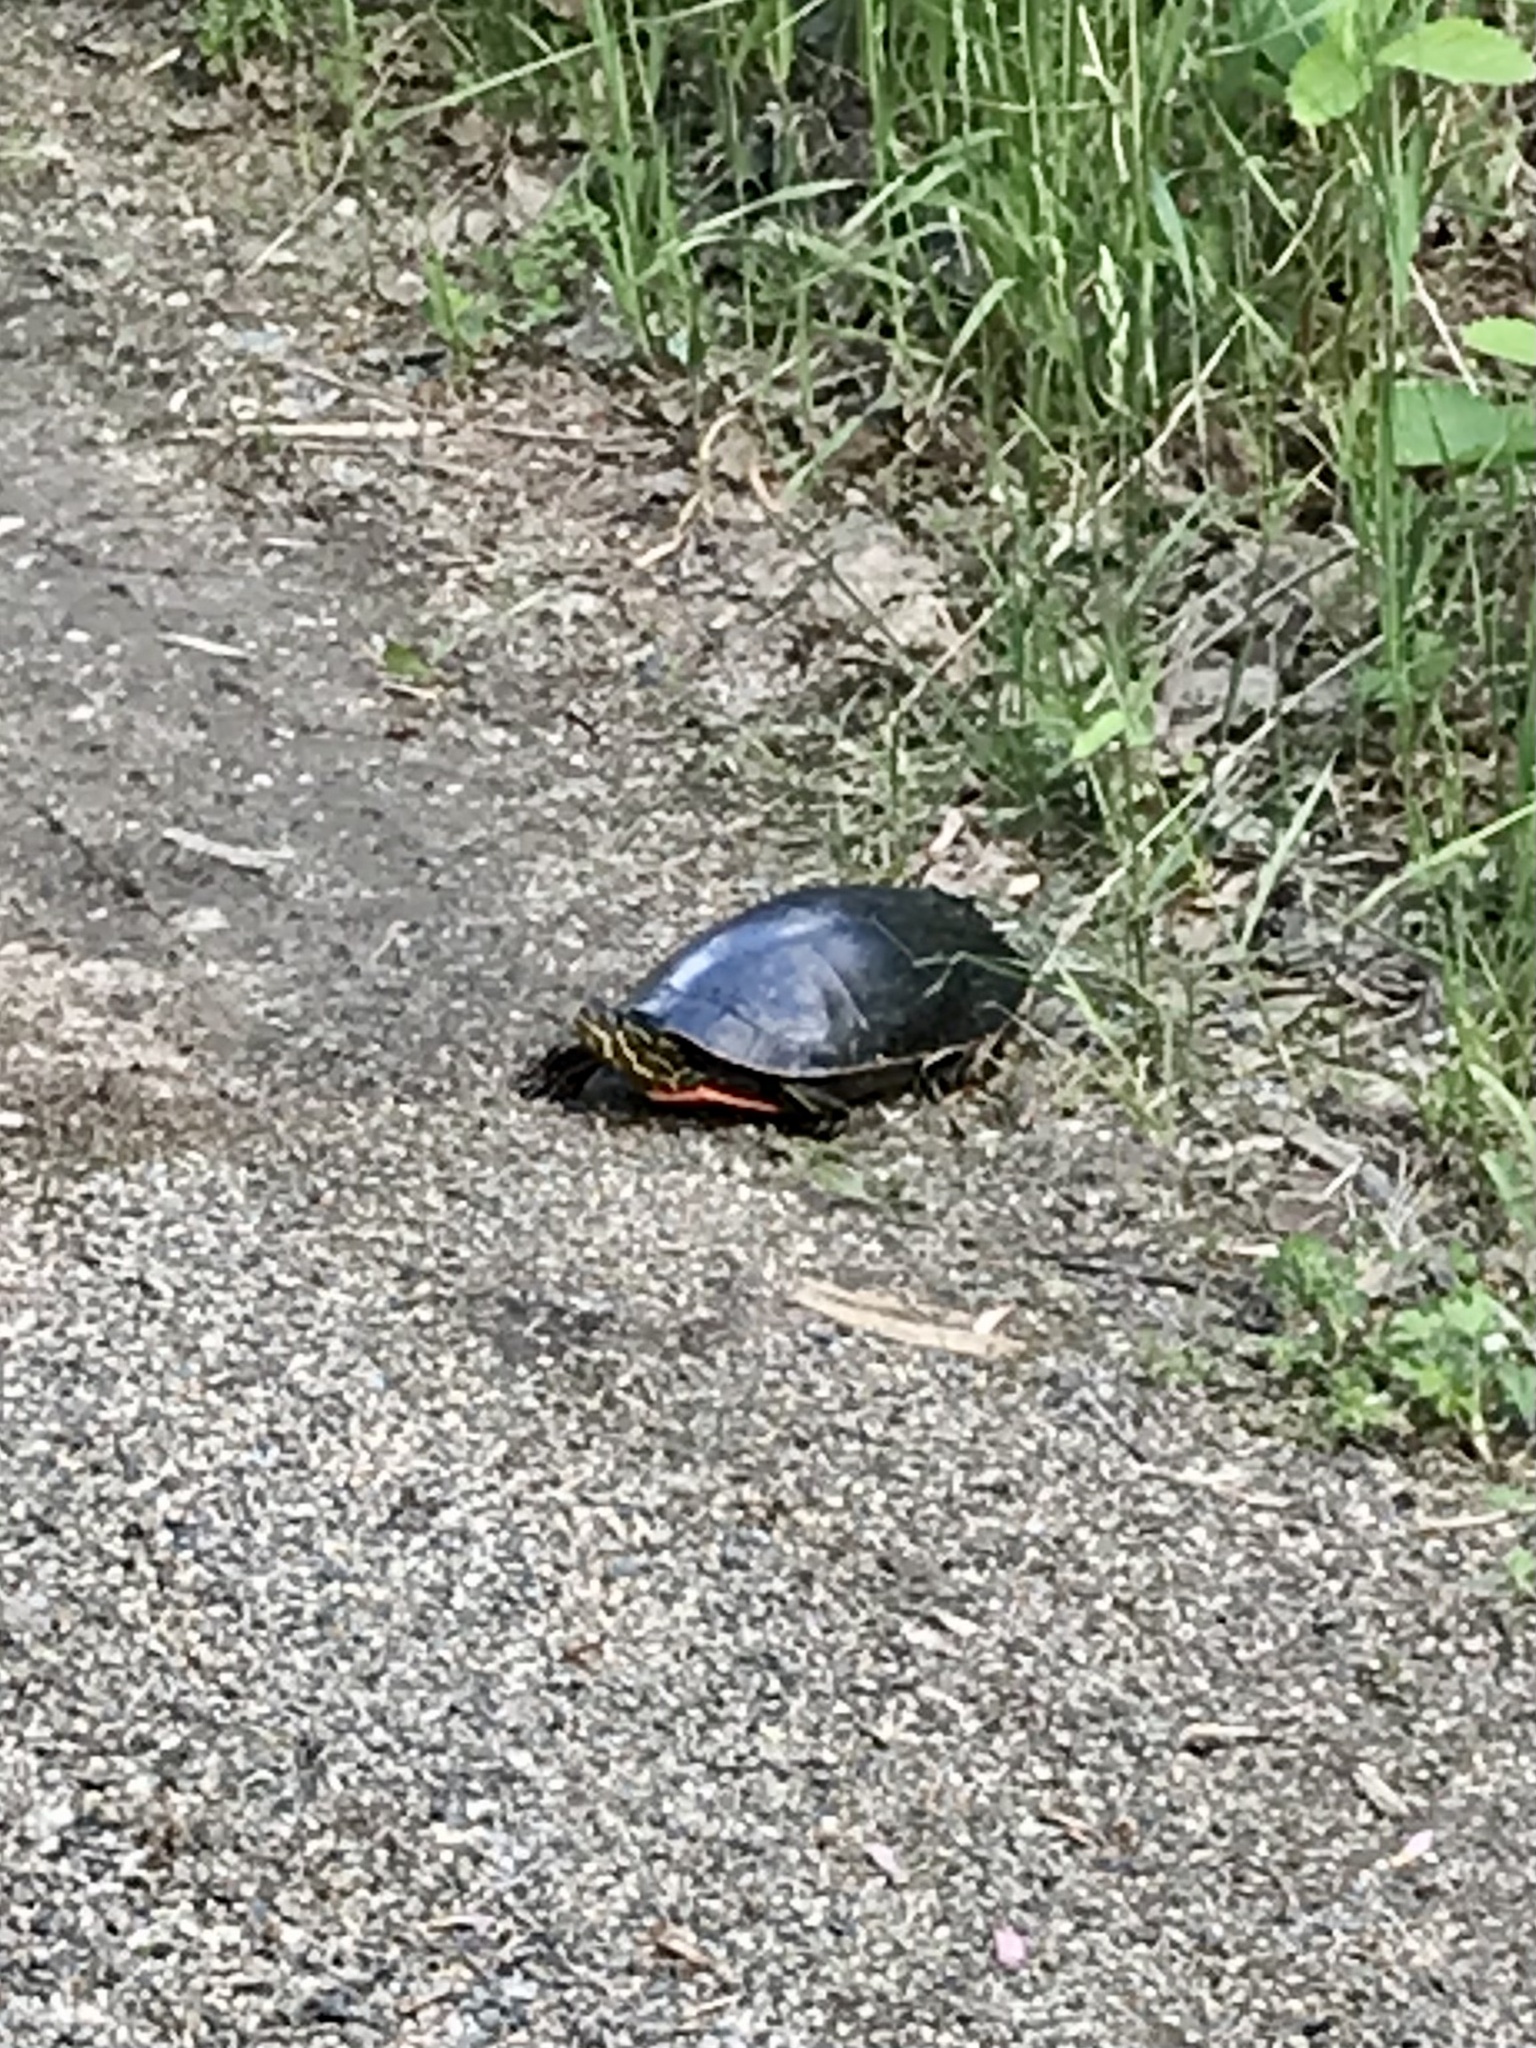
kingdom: Animalia
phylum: Chordata
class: Testudines
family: Emydidae
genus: Chrysemys
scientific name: Chrysemys picta
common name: Painted turtle
